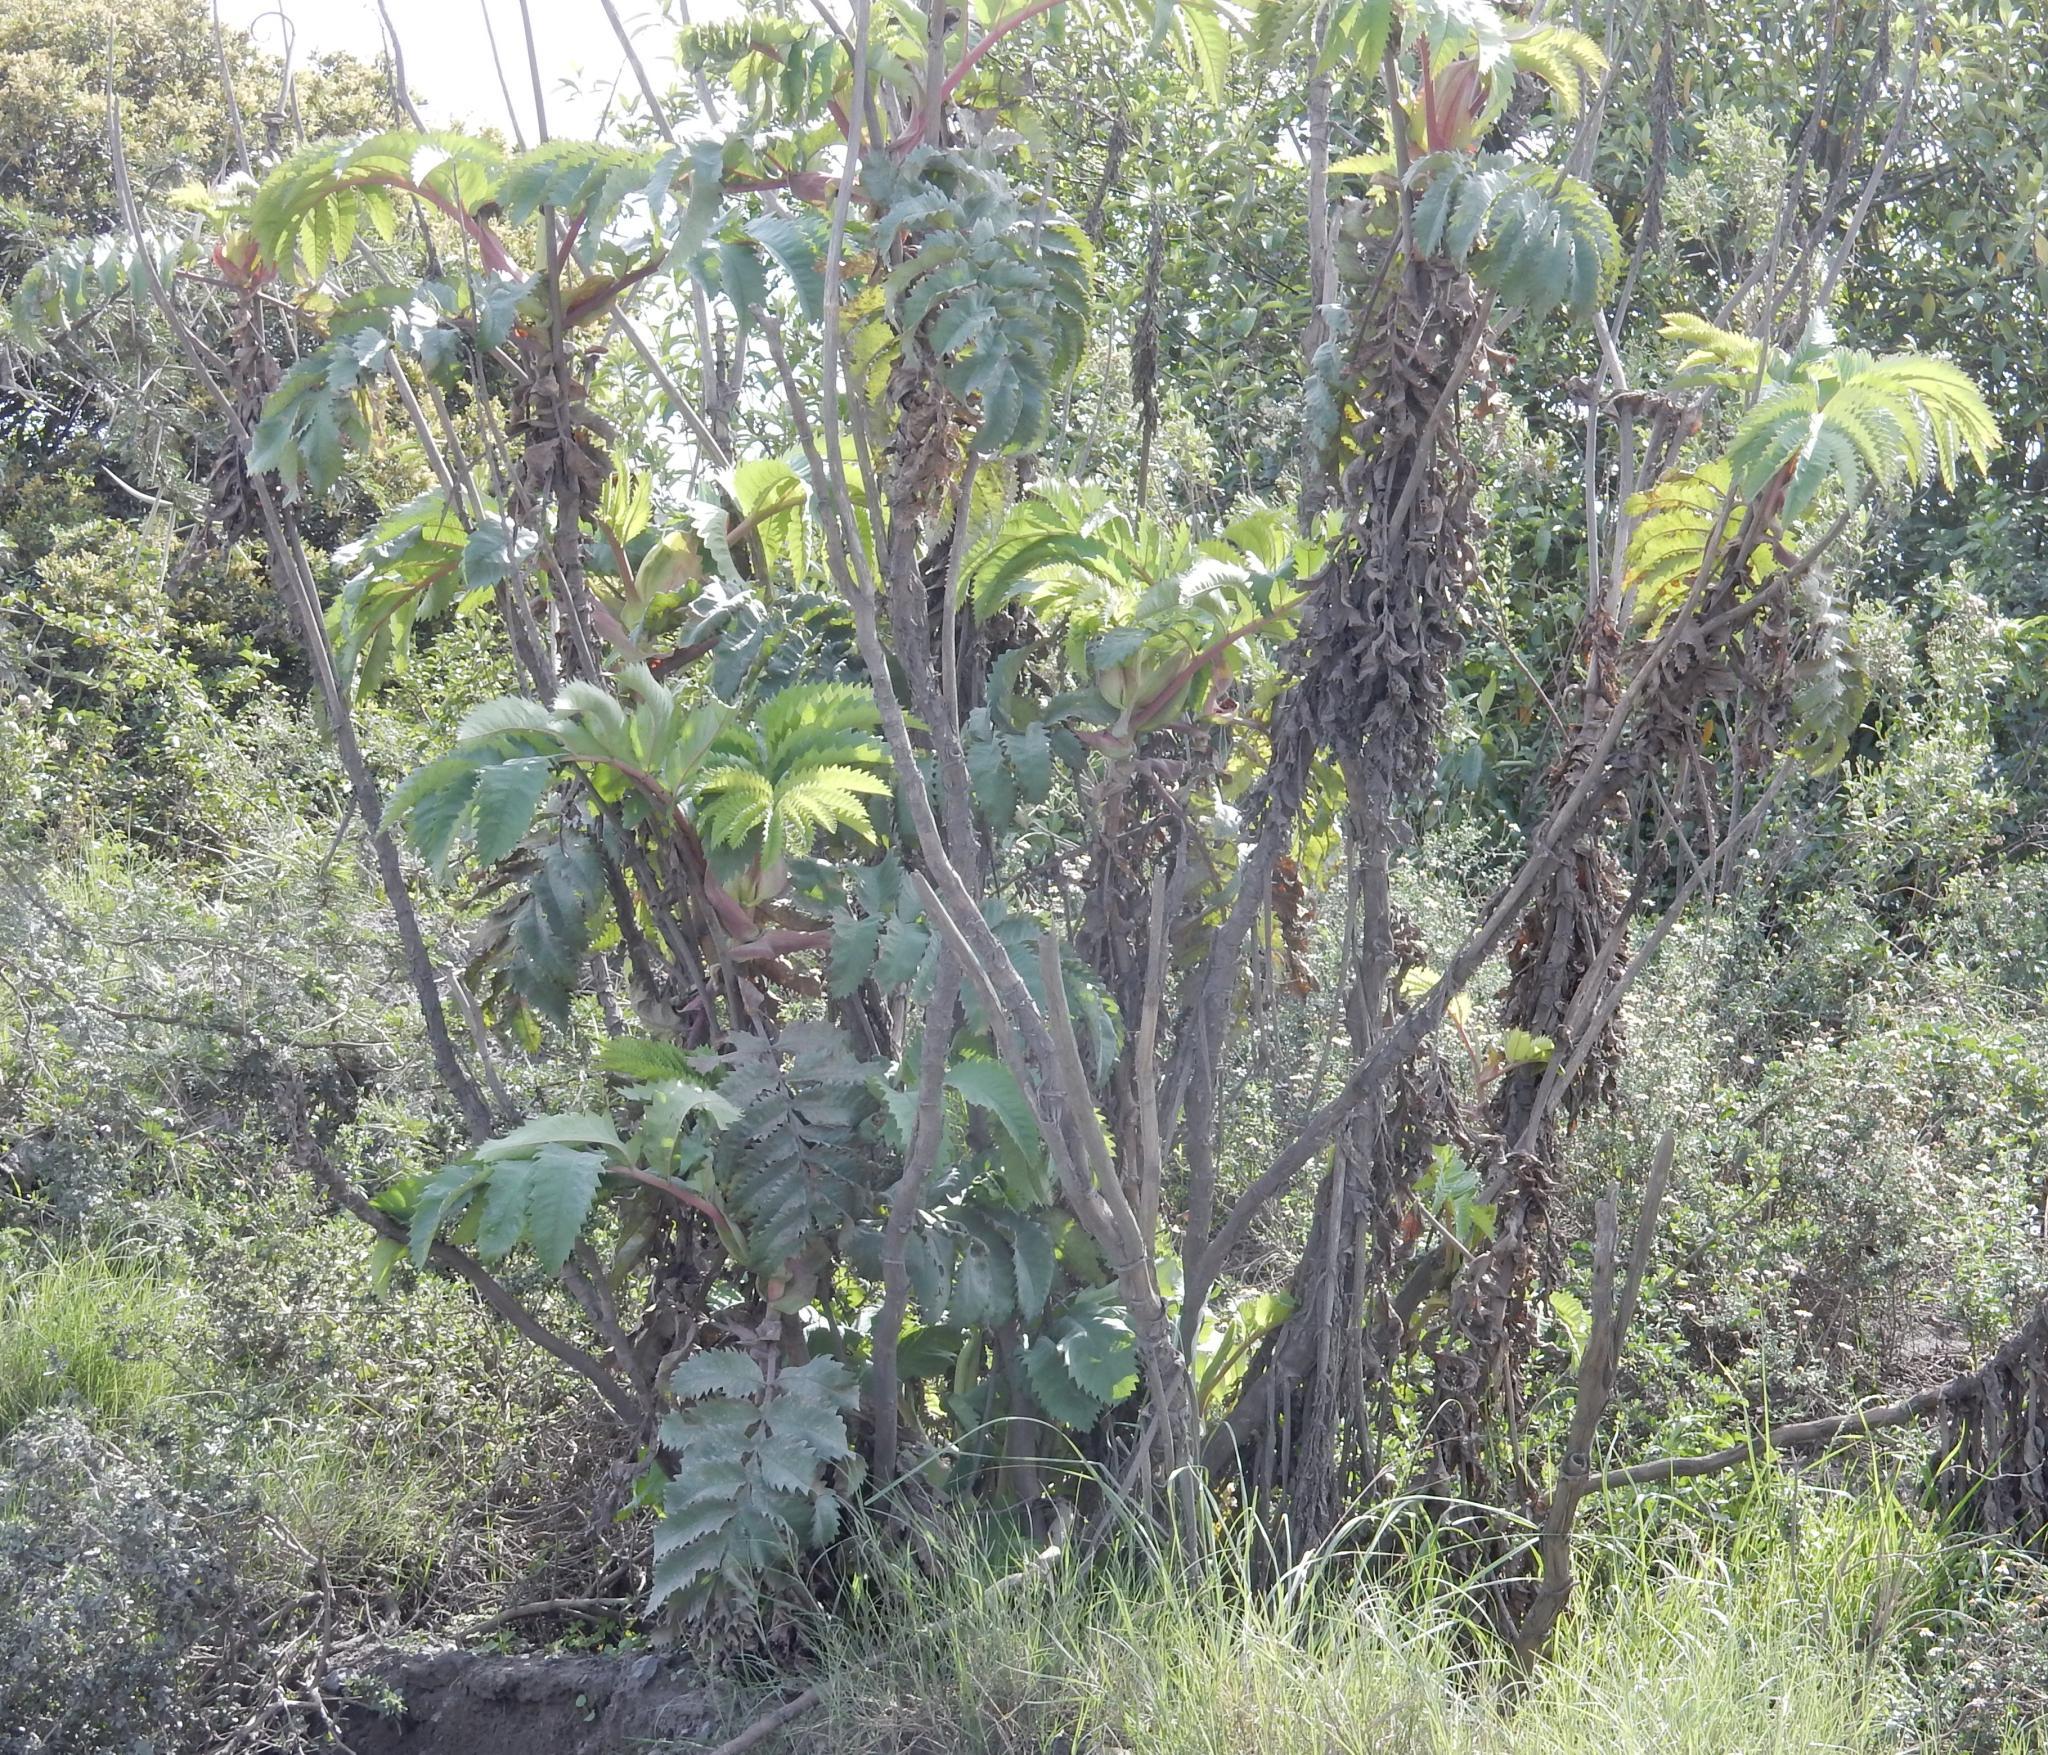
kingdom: Plantae
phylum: Tracheophyta
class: Magnoliopsida
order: Geraniales
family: Melianthaceae
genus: Melianthus
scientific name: Melianthus major
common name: Honey-flower
